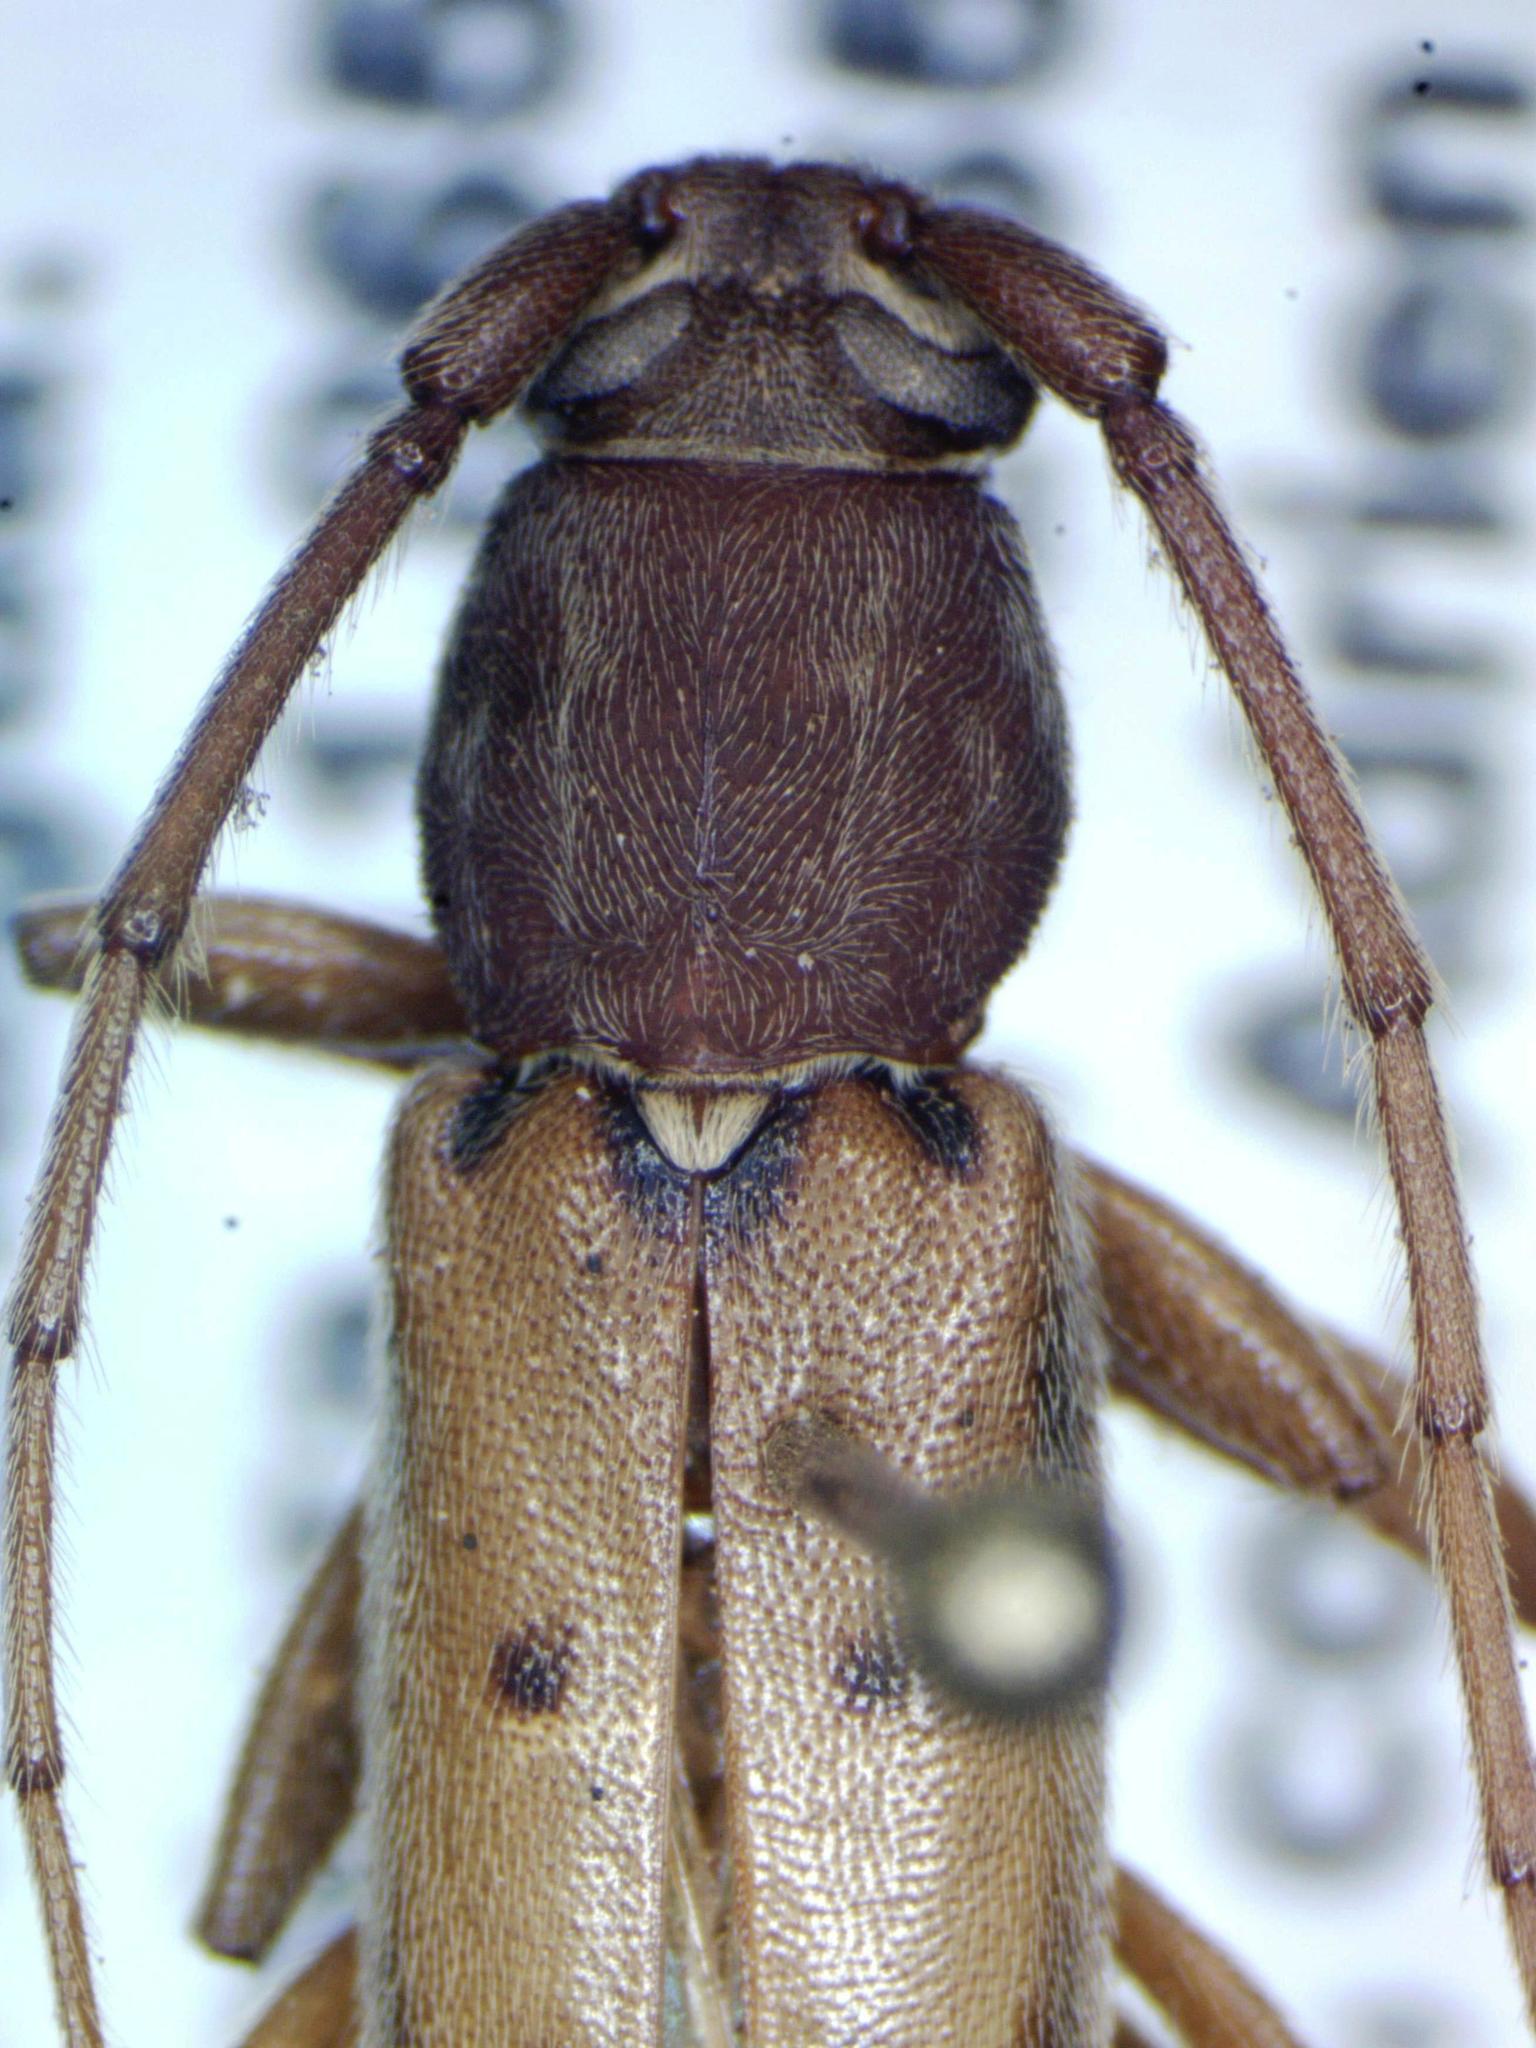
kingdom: Animalia
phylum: Arthropoda
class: Insecta
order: Coleoptera
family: Cerambycidae
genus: Achryson
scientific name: Achryson surinamum
